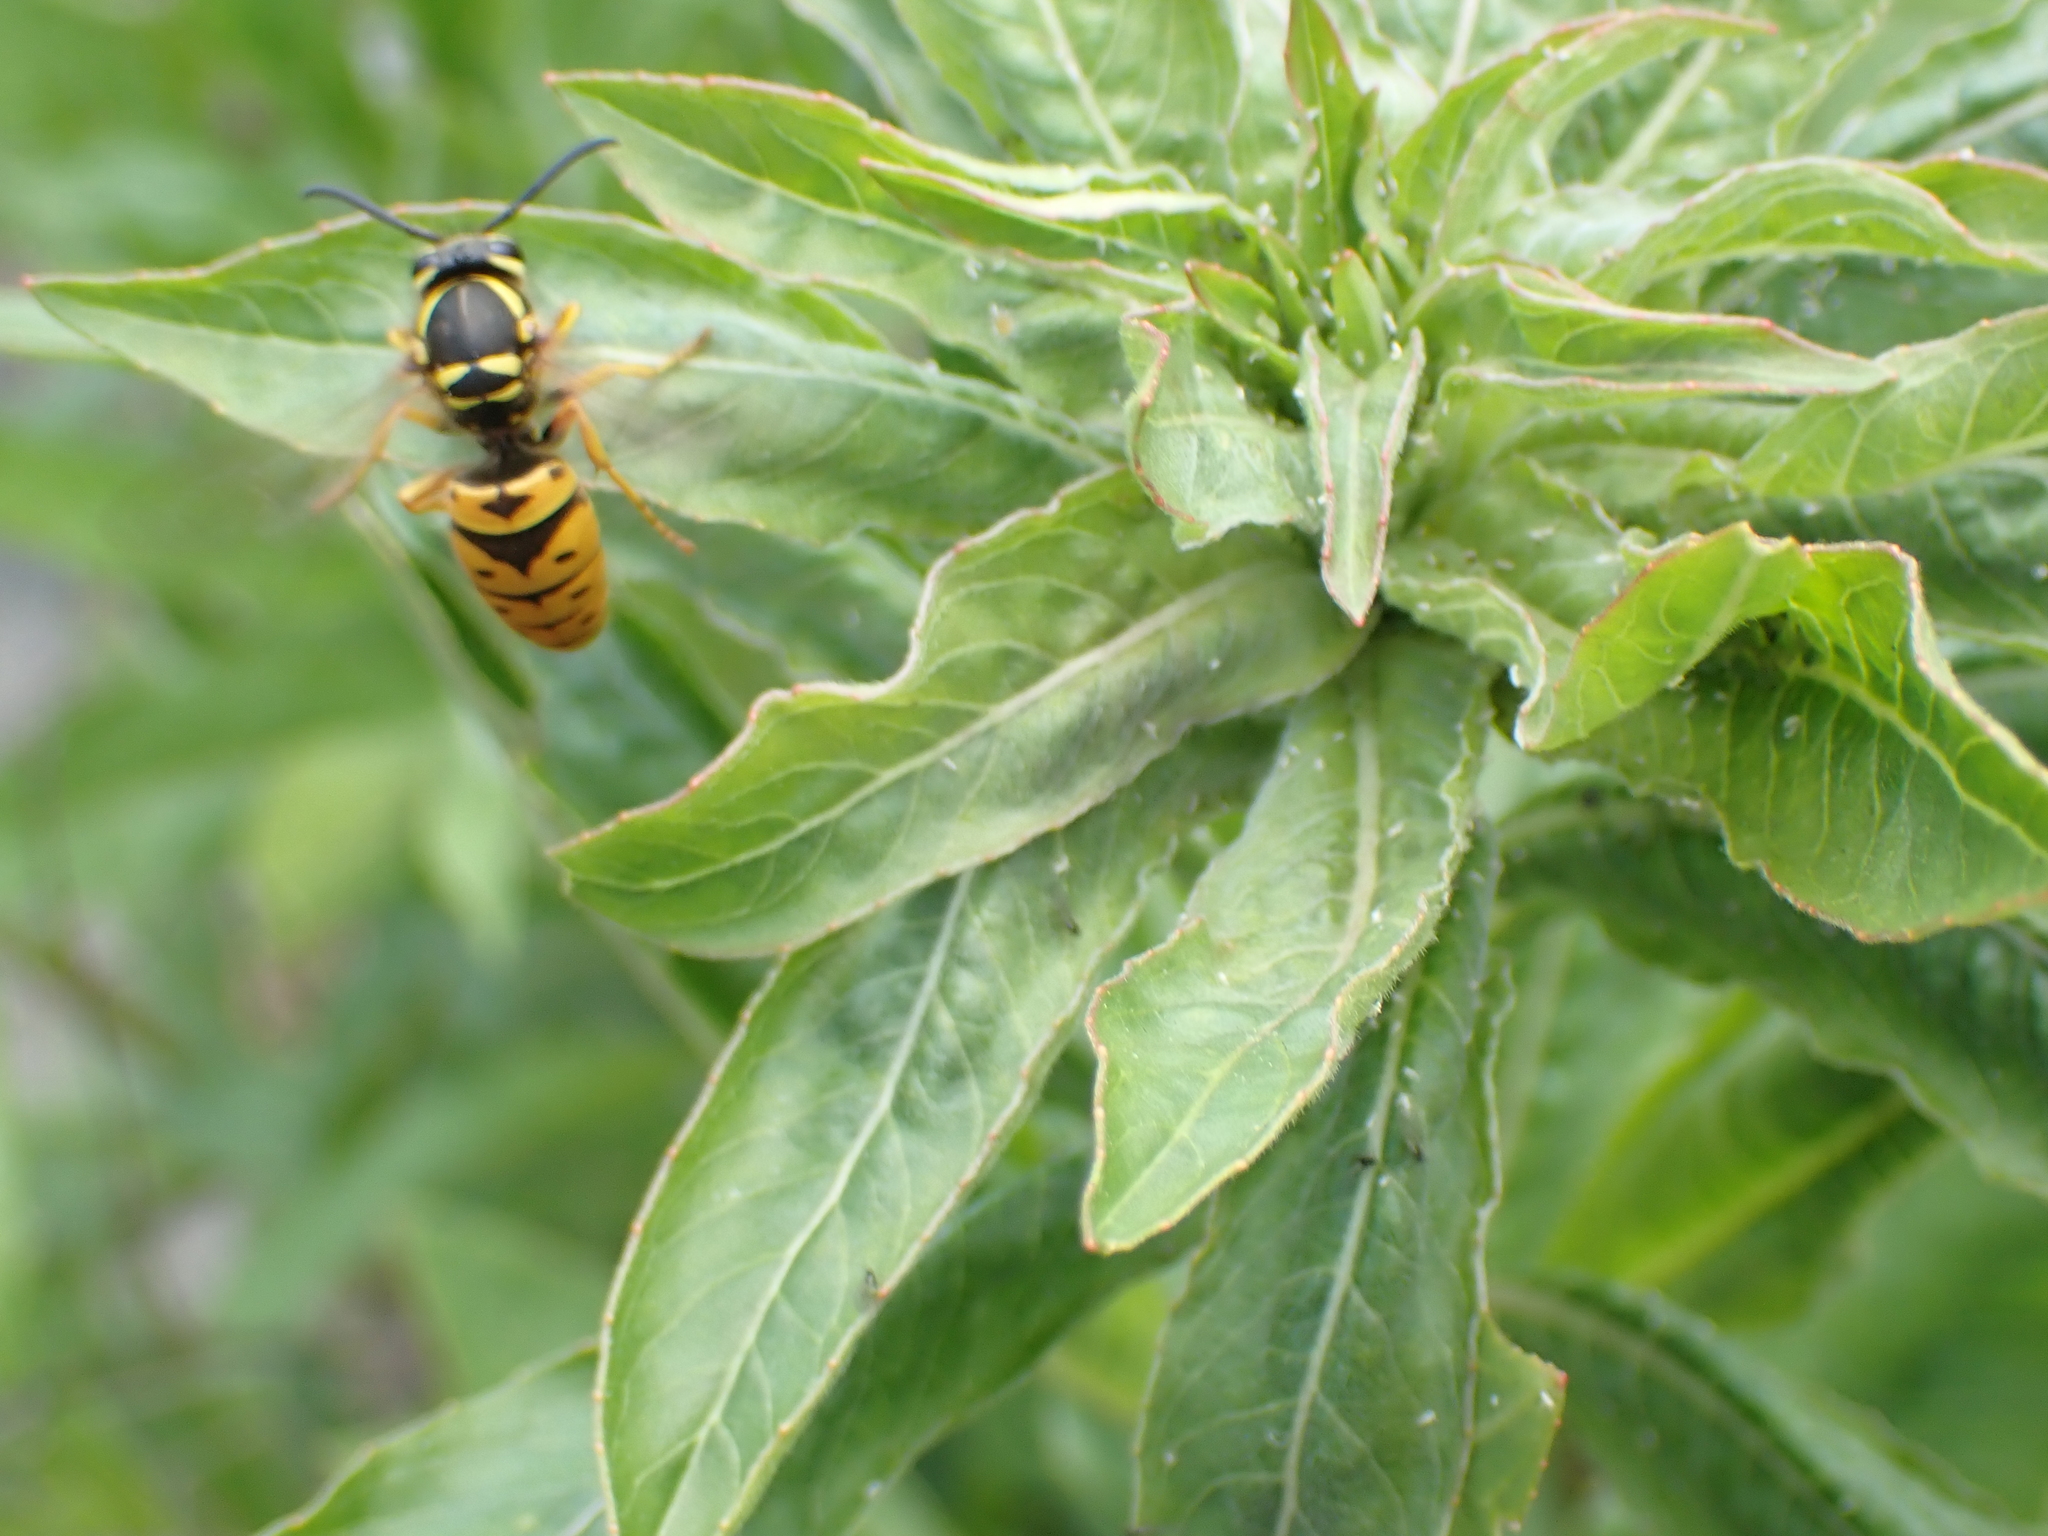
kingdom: Animalia
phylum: Arthropoda
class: Insecta
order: Hymenoptera
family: Vespidae
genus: Vespula
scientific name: Vespula maculifrons
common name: Eastern yellowjacket
